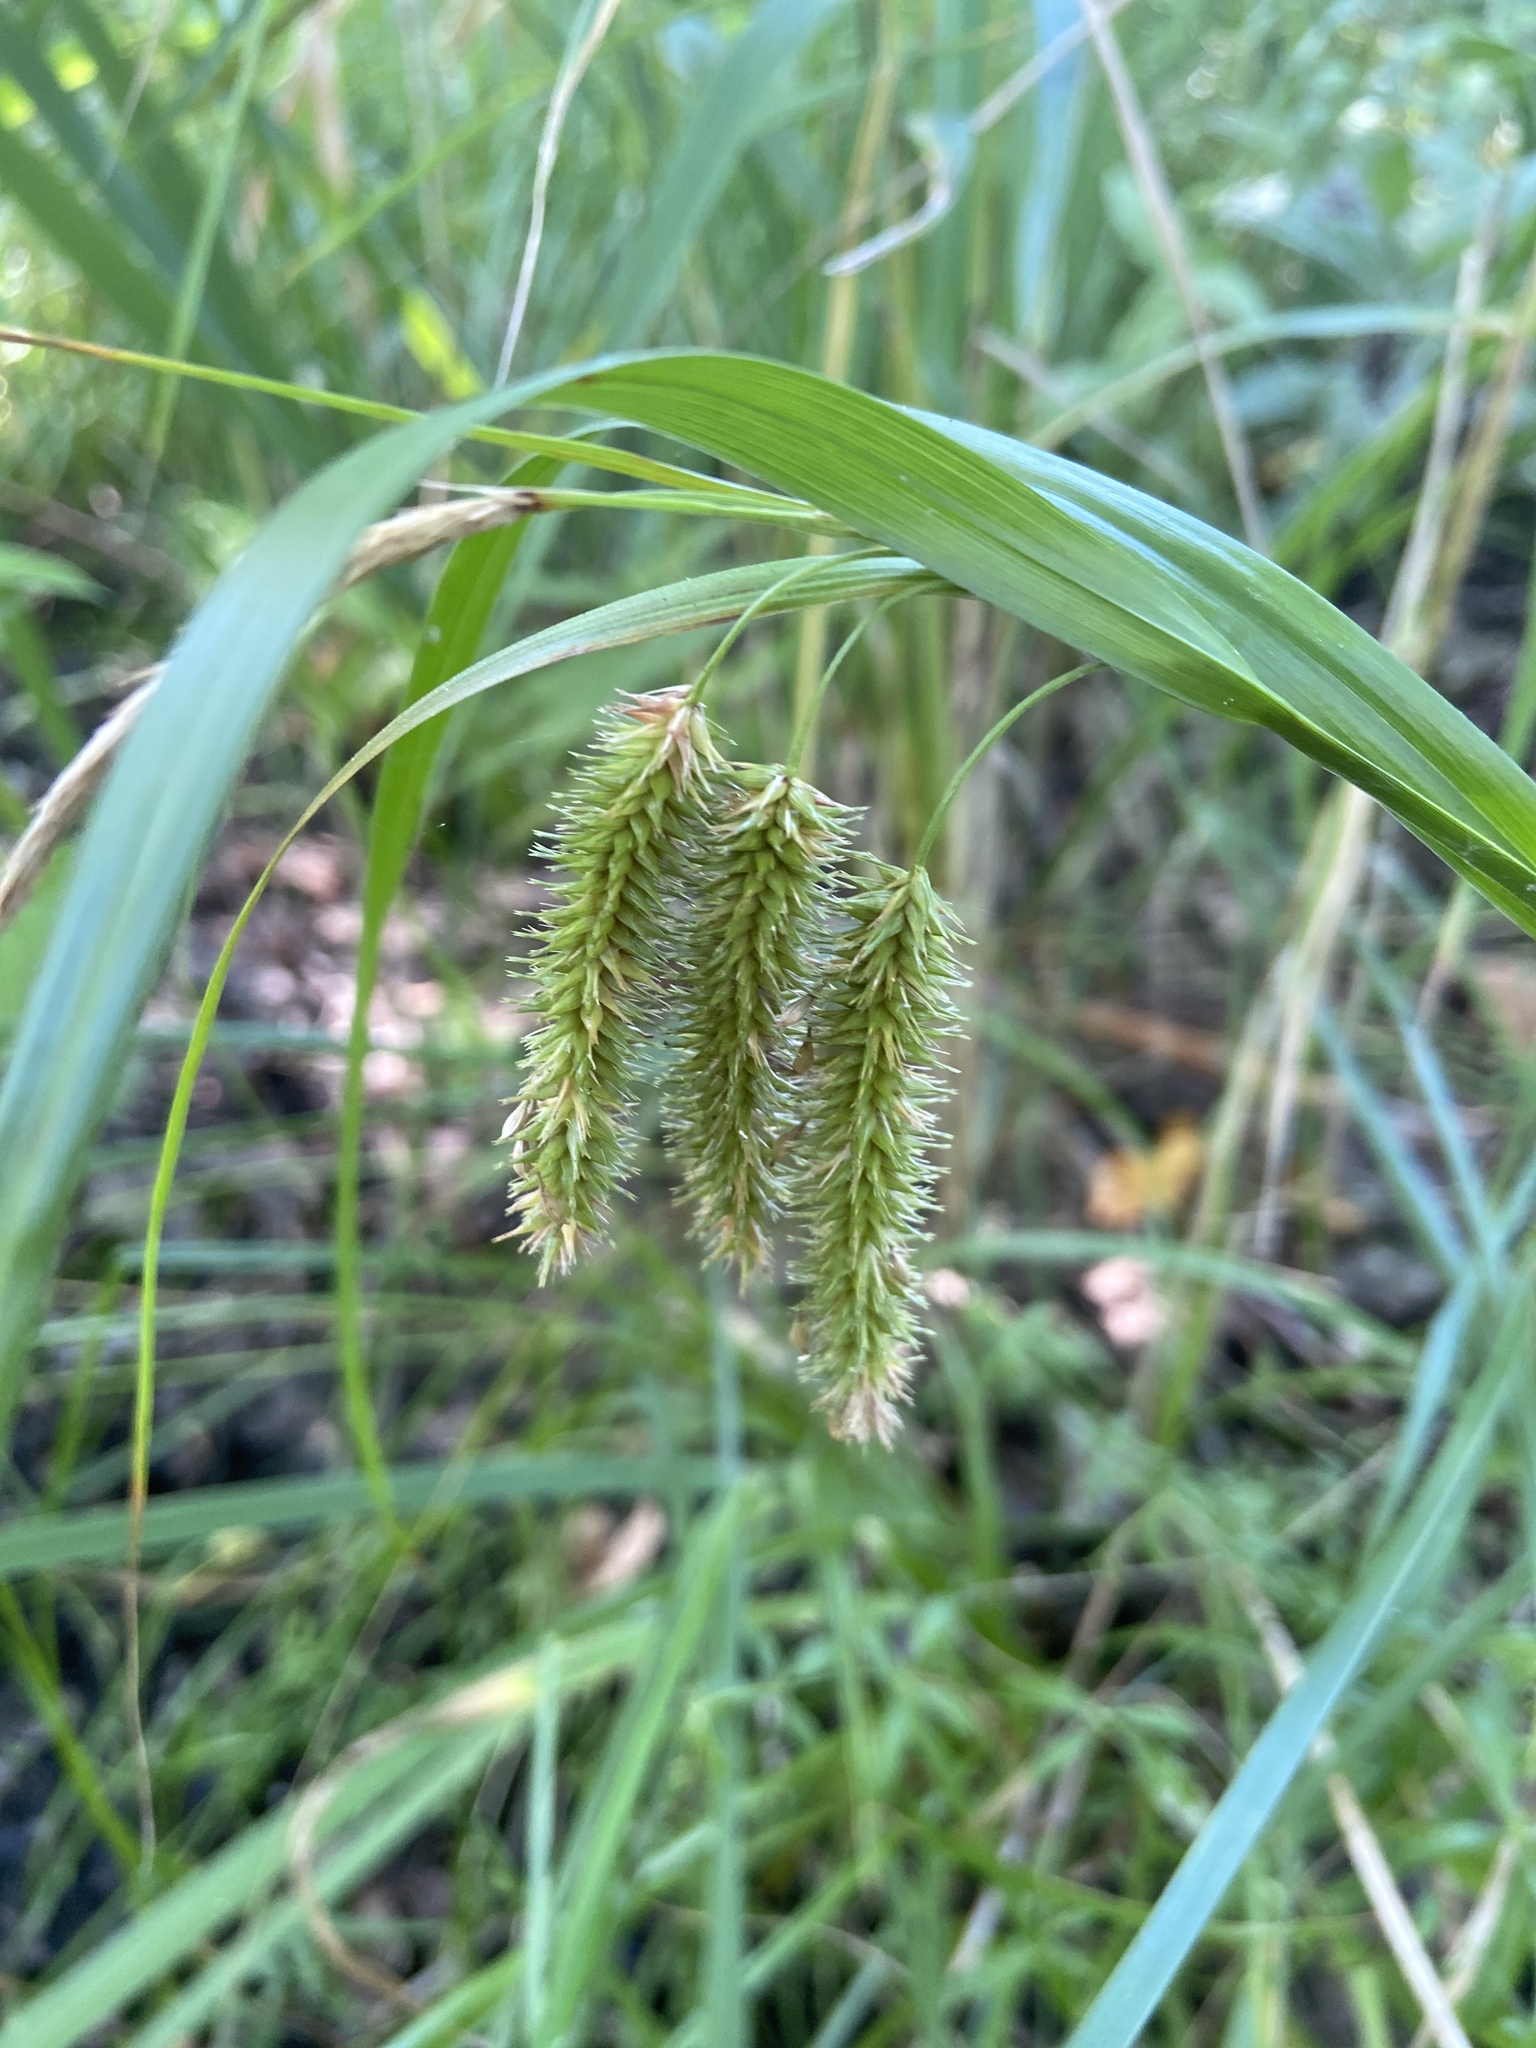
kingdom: Plantae
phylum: Tracheophyta
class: Liliopsida
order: Poales
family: Cyperaceae
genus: Carex
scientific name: Carex pseudocyperus
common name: Cyperus sedge
